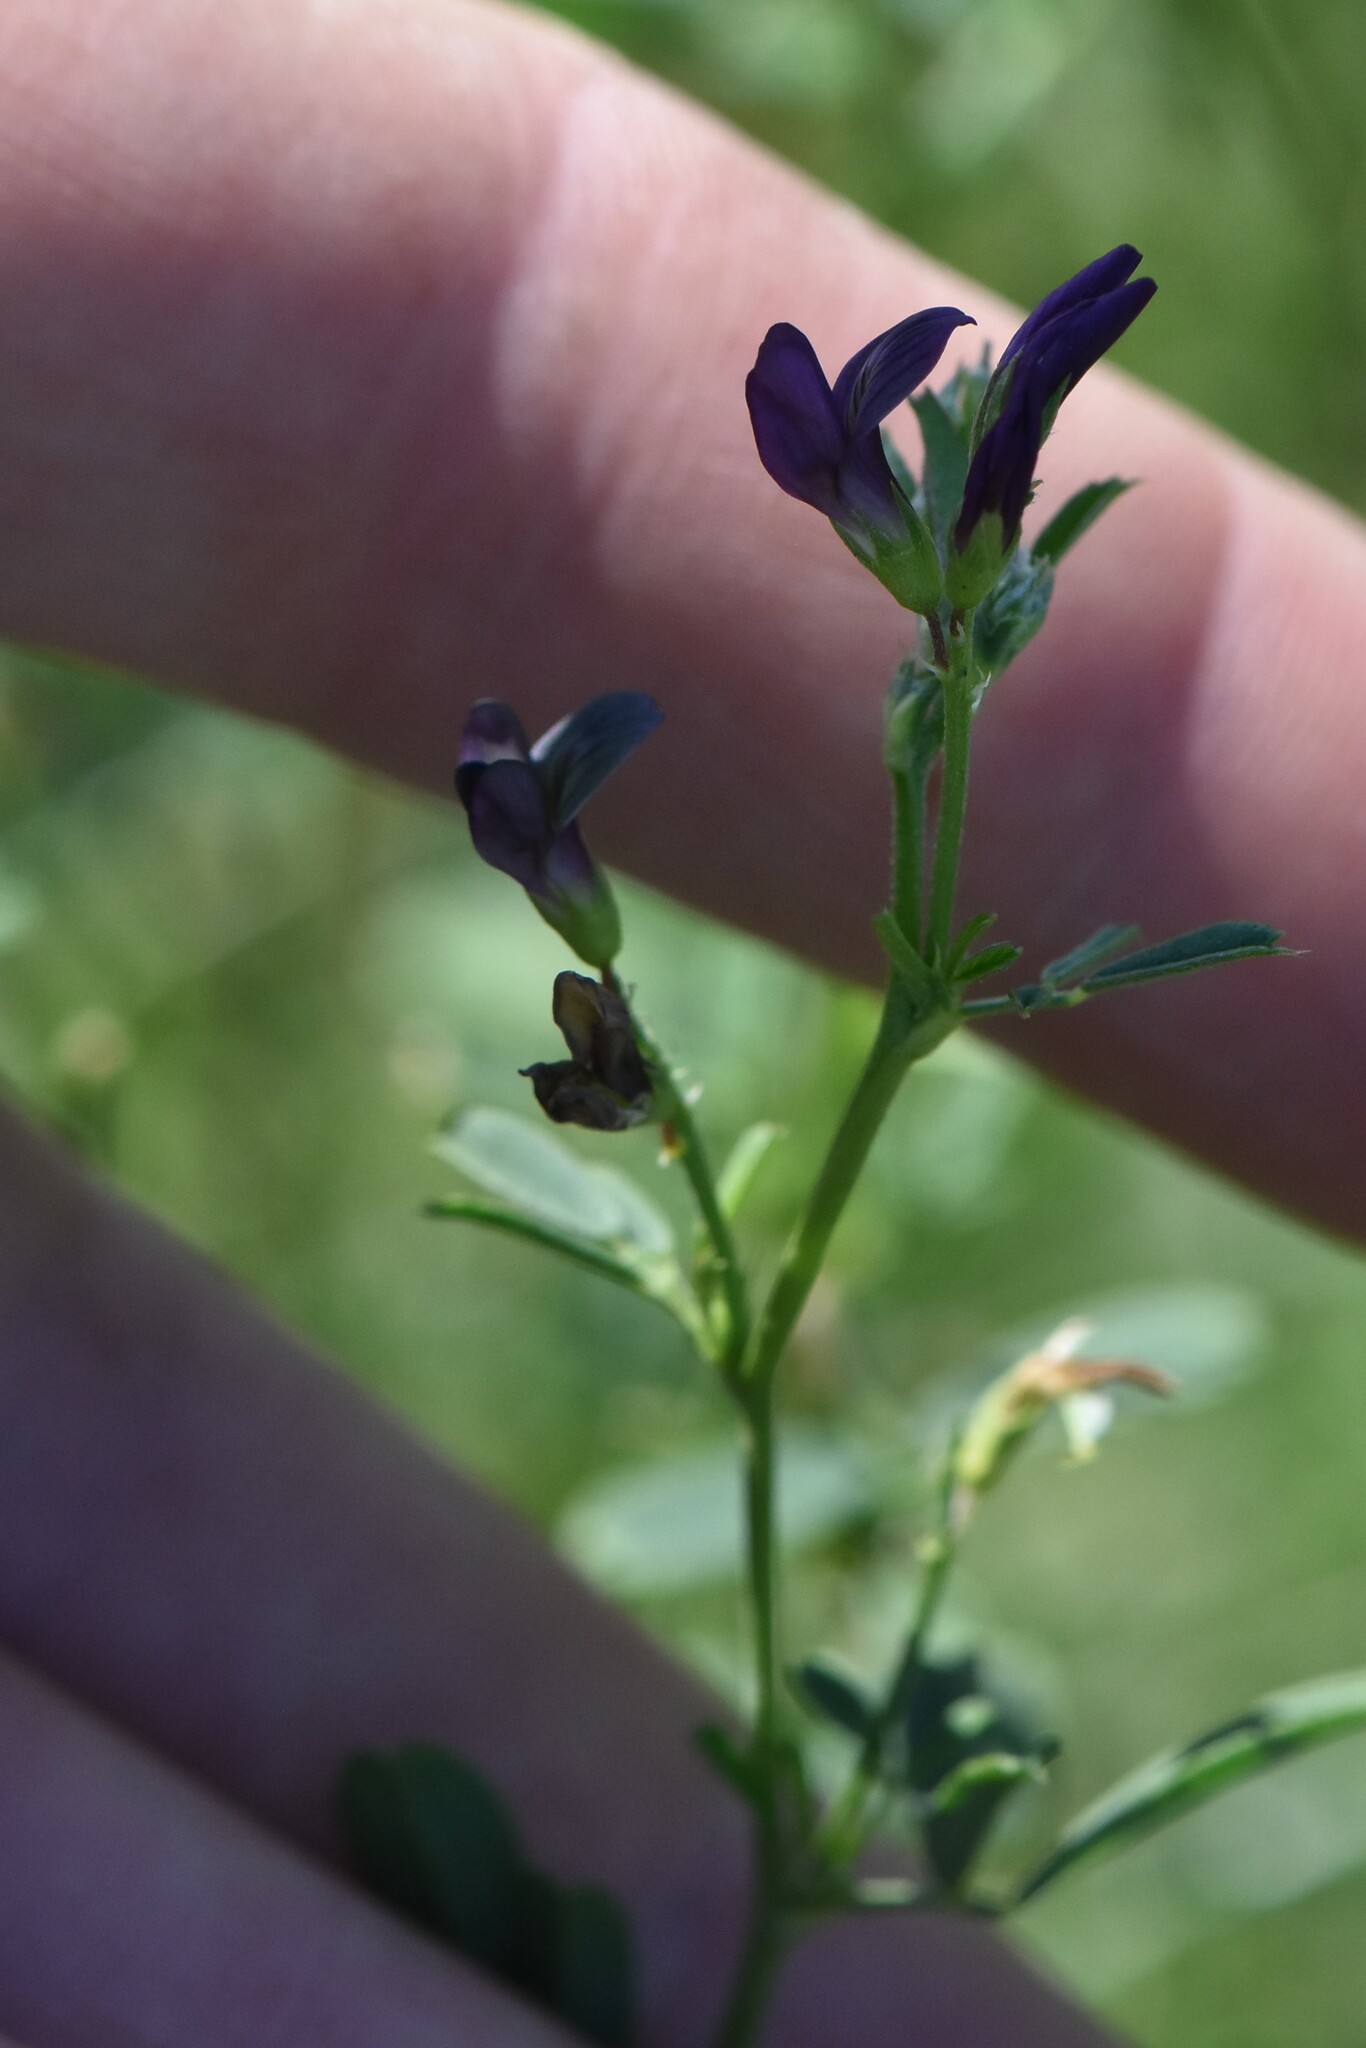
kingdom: Plantae
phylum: Tracheophyta
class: Magnoliopsida
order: Fabales
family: Fabaceae
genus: Medicago
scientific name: Medicago varia
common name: Sand lucerne
